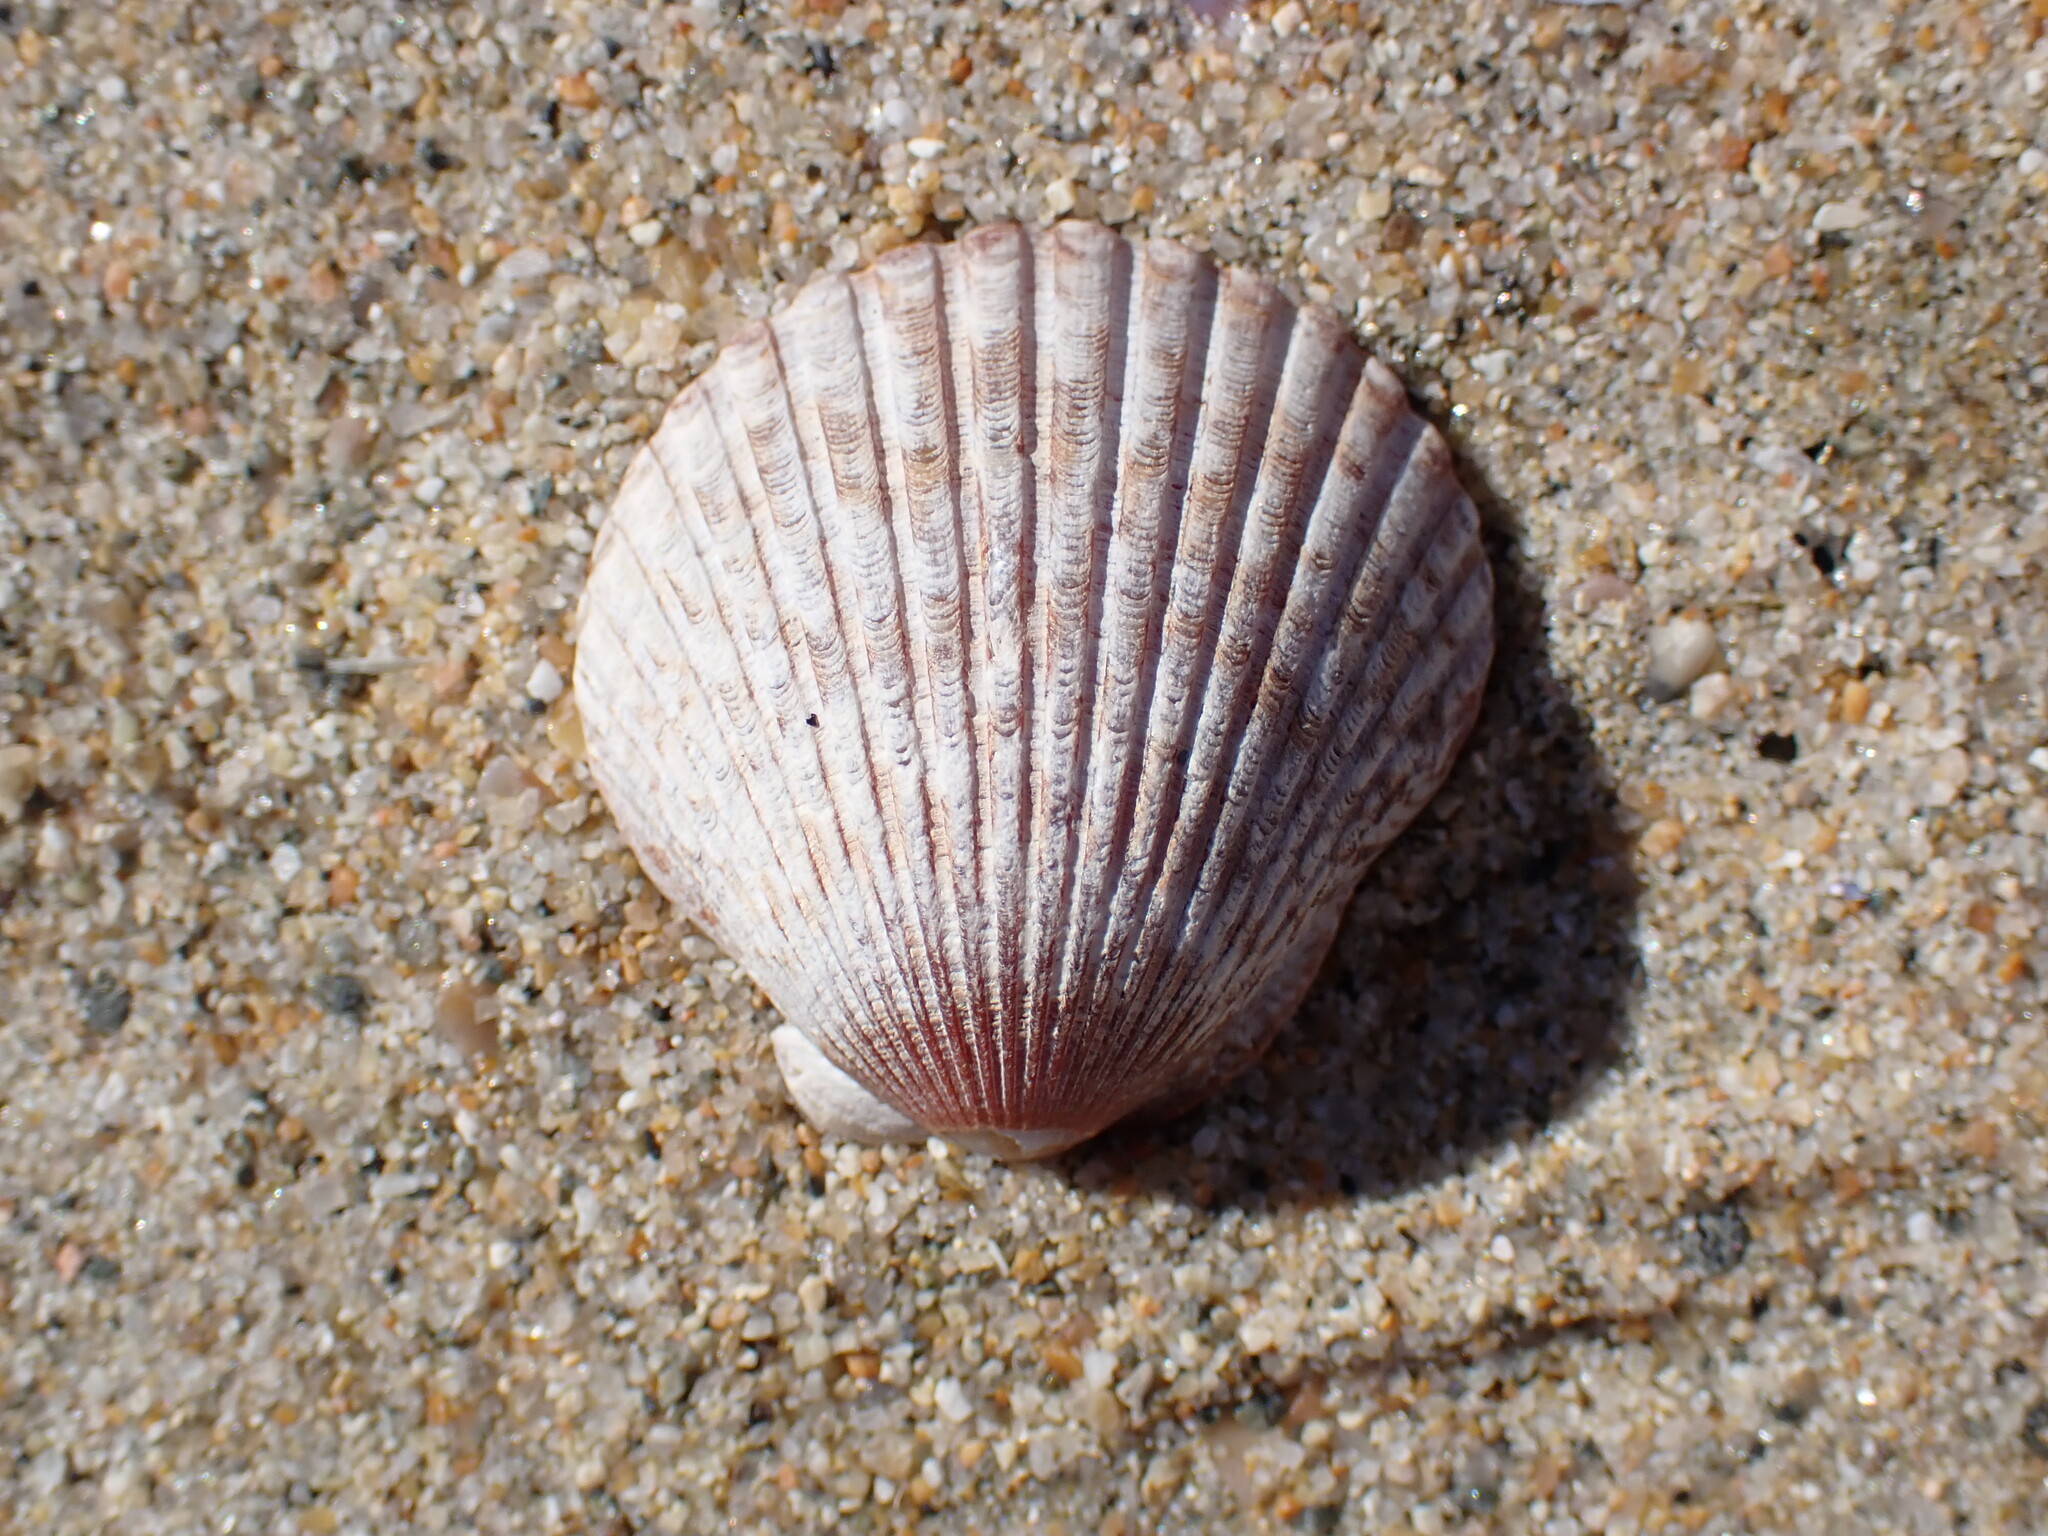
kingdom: Animalia
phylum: Mollusca
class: Bivalvia
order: Pectinida
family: Pectinidae
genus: Argopecten
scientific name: Argopecten ventricosus
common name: Catarina scallop
